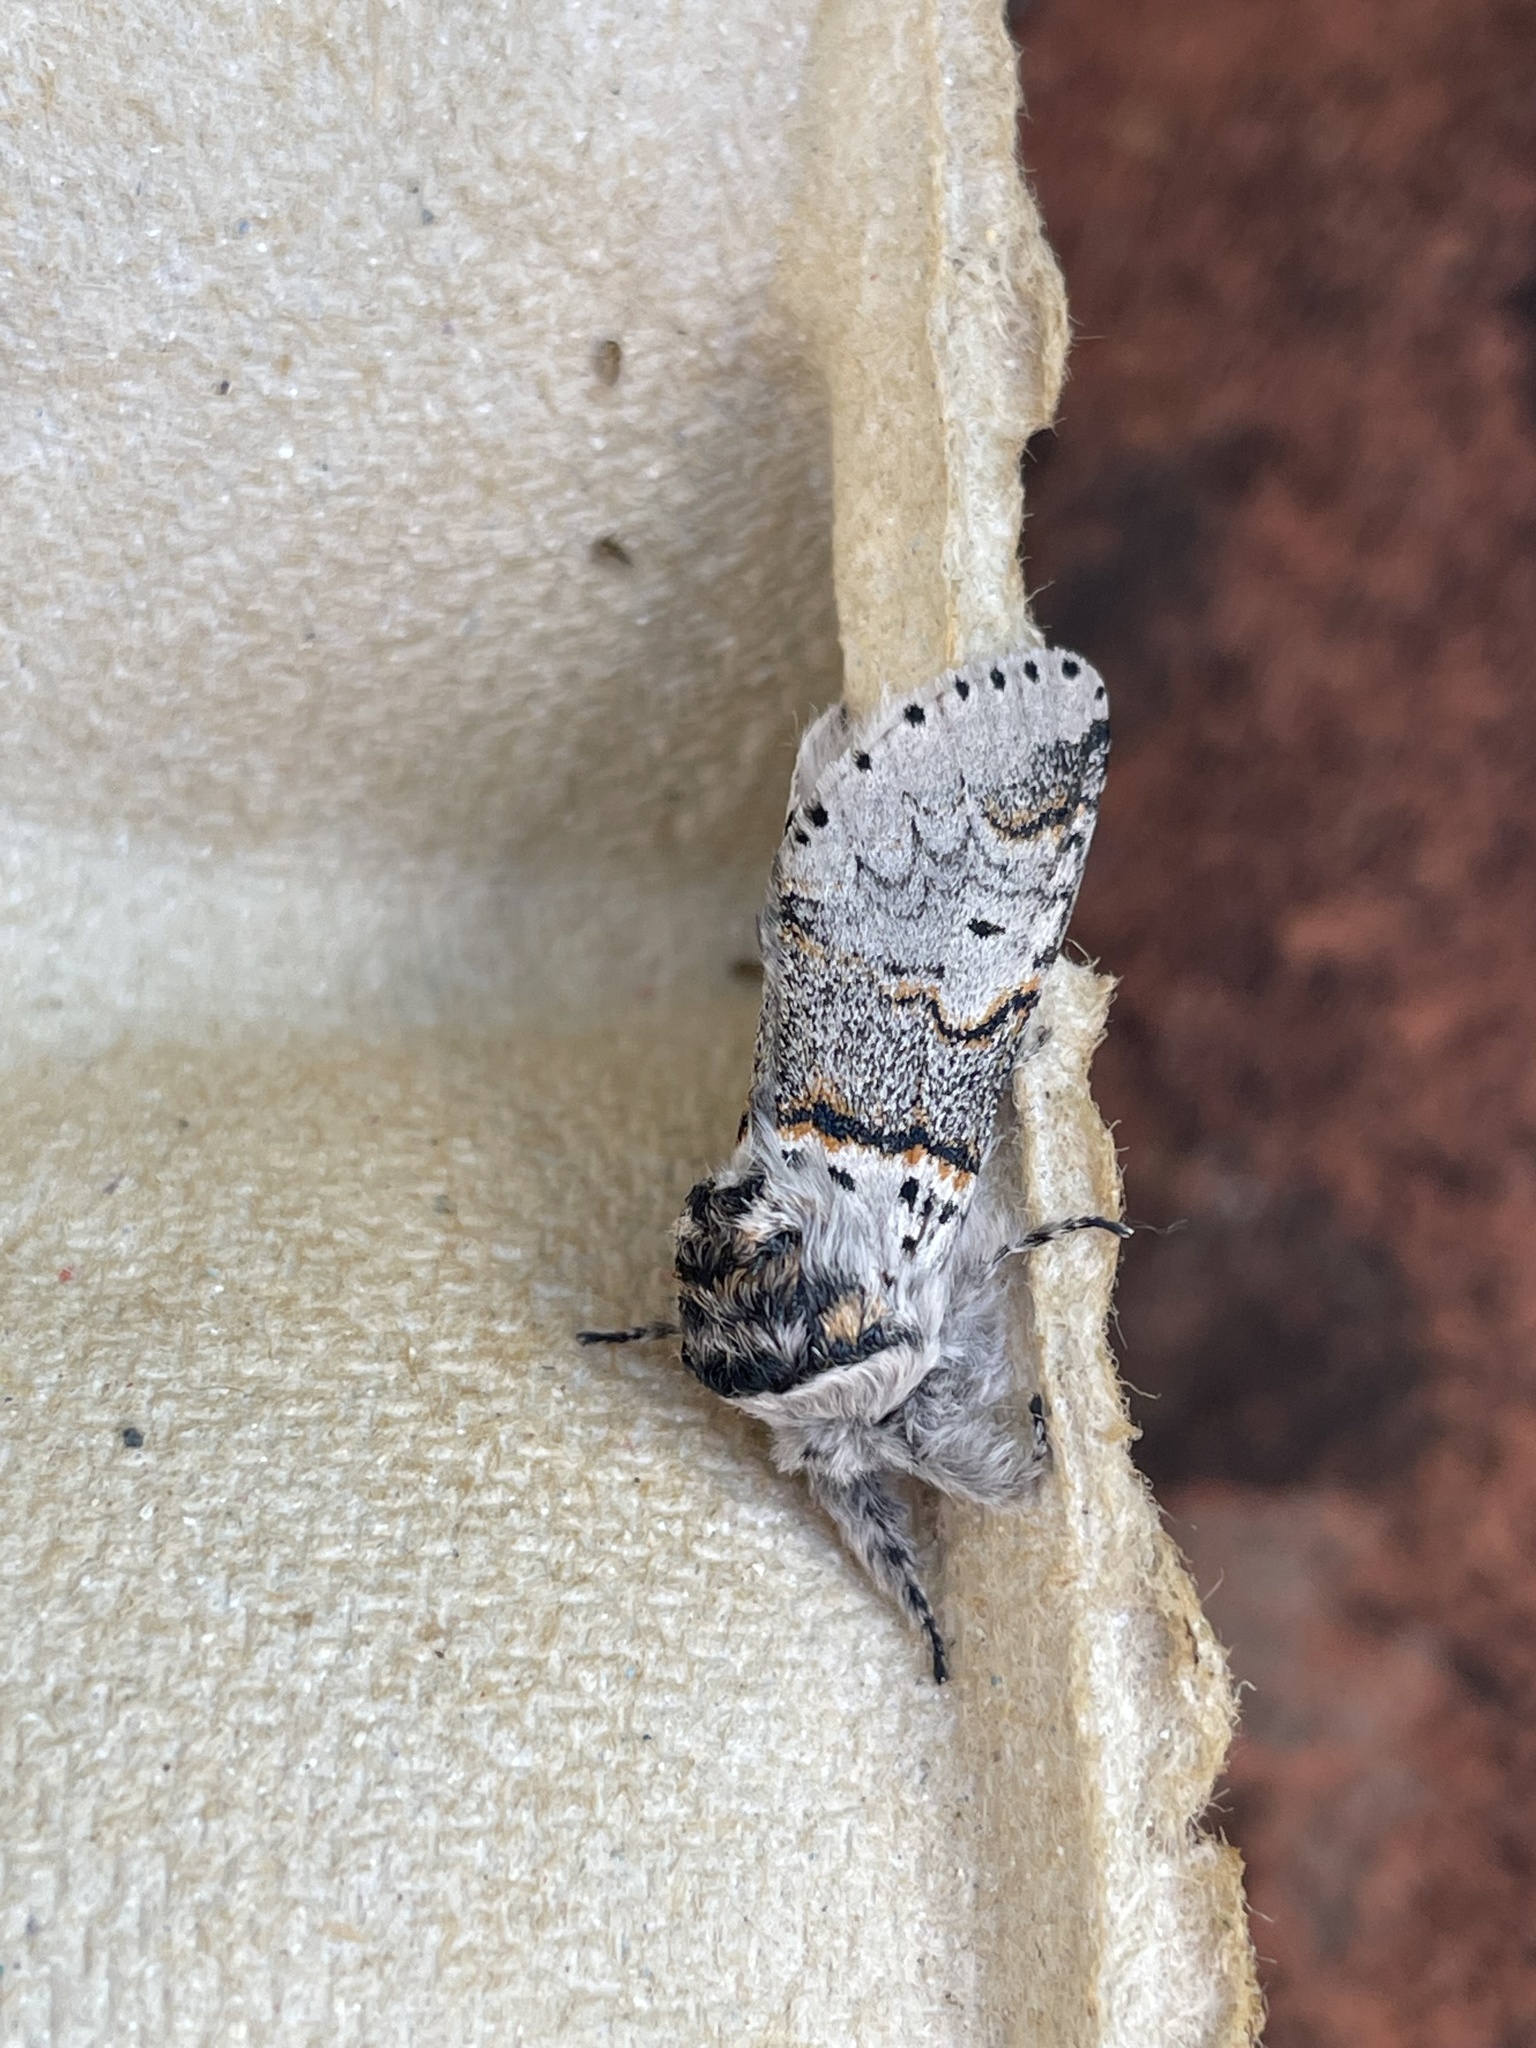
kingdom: Animalia
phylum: Arthropoda
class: Insecta
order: Lepidoptera
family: Notodontidae
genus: Furcula
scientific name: Furcula furcula
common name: Sallow kitten
